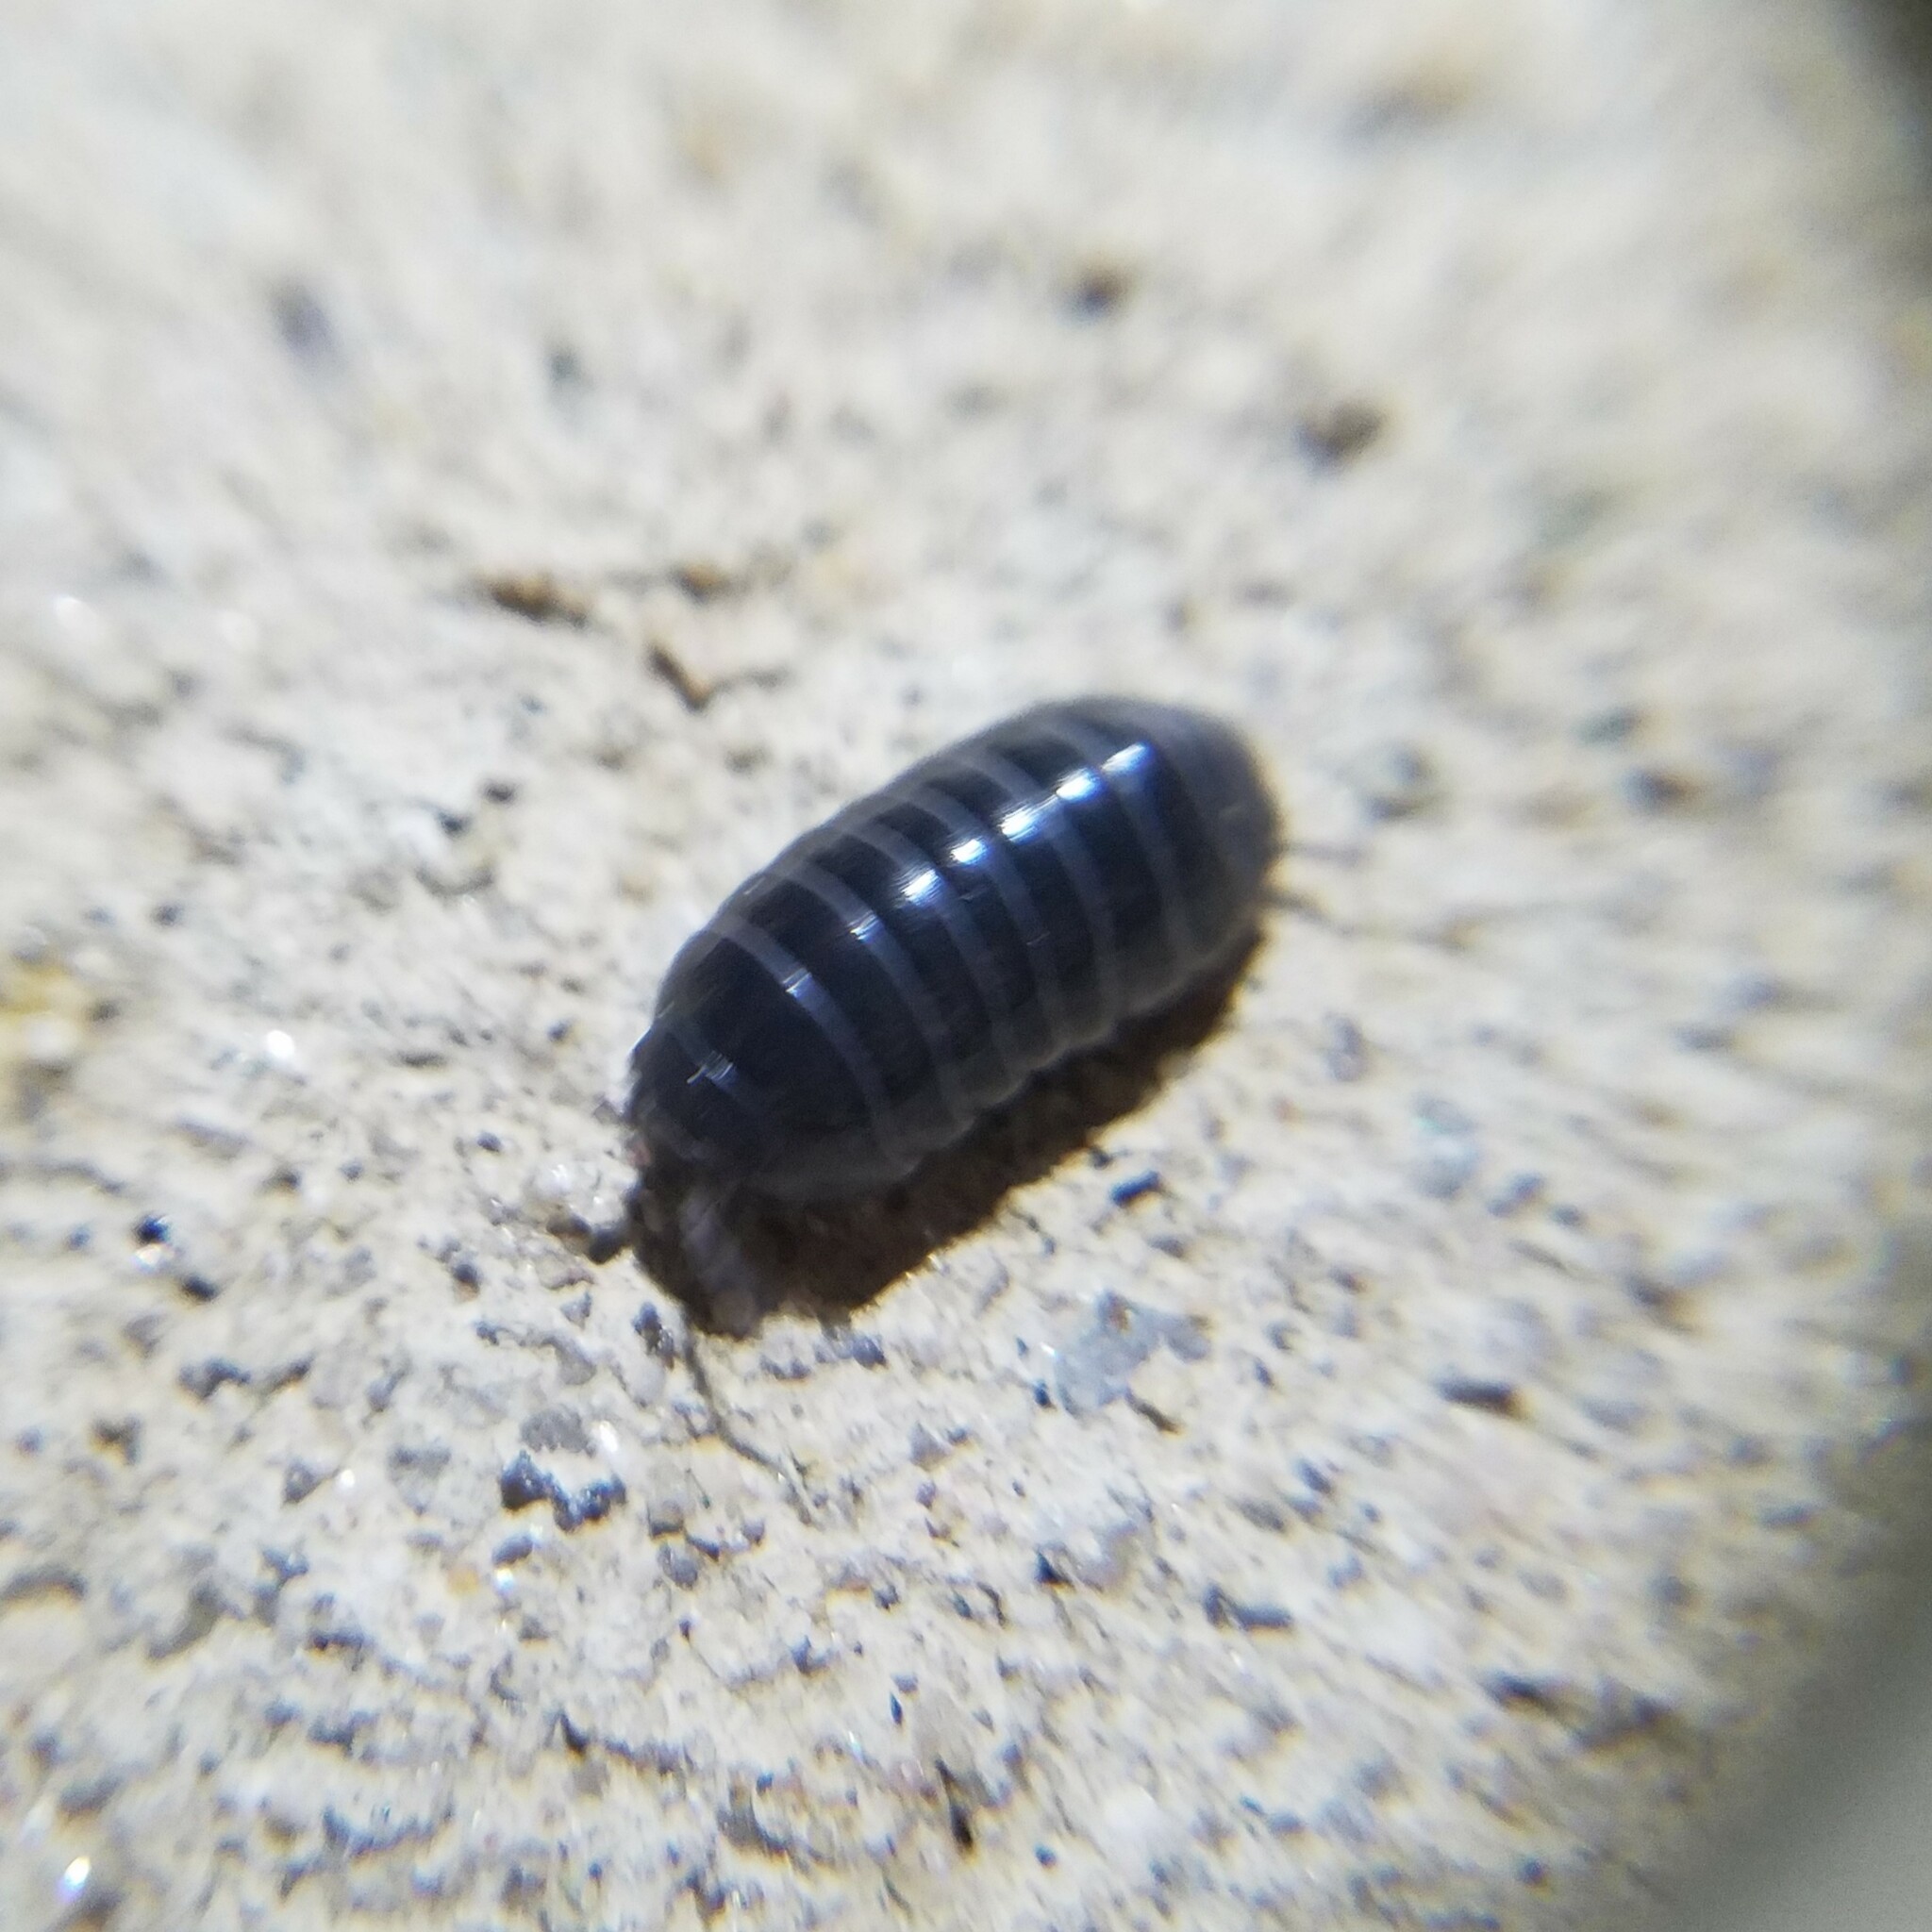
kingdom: Animalia
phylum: Arthropoda
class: Malacostraca
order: Isopoda
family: Armadillidiidae
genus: Armadillidium
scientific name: Armadillidium vulgare
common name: Common pill woodlouse
